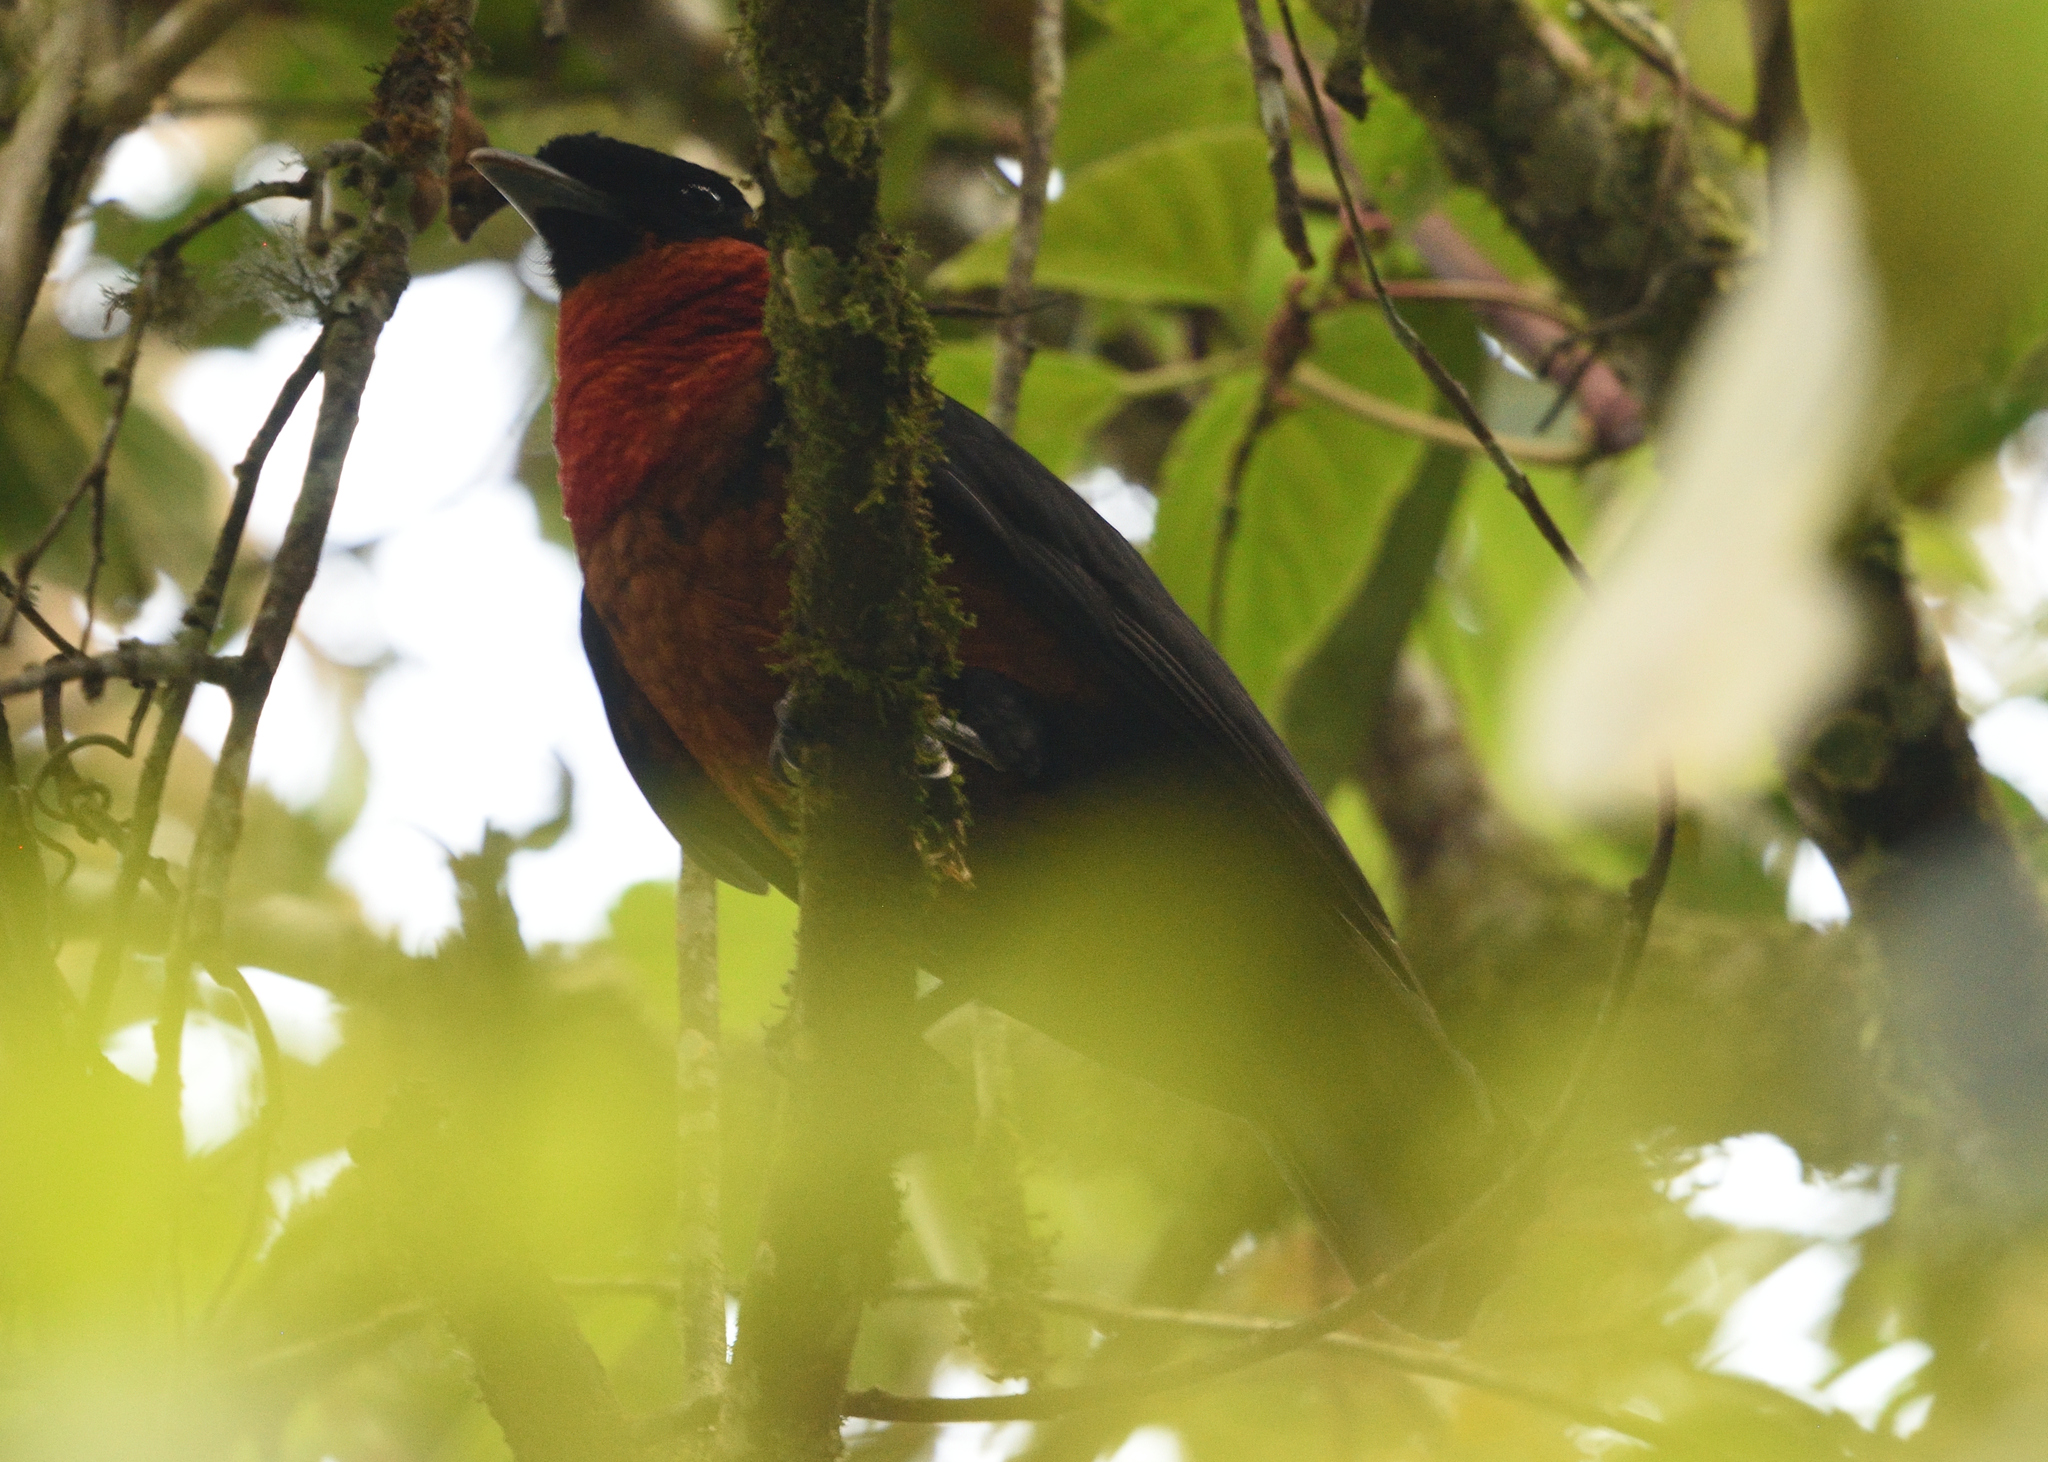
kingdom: Animalia
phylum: Chordata
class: Aves
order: Passeriformes
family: Cotingidae
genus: Pyroderus
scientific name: Pyroderus scutatus
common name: Red-ruffed fruitcrow
